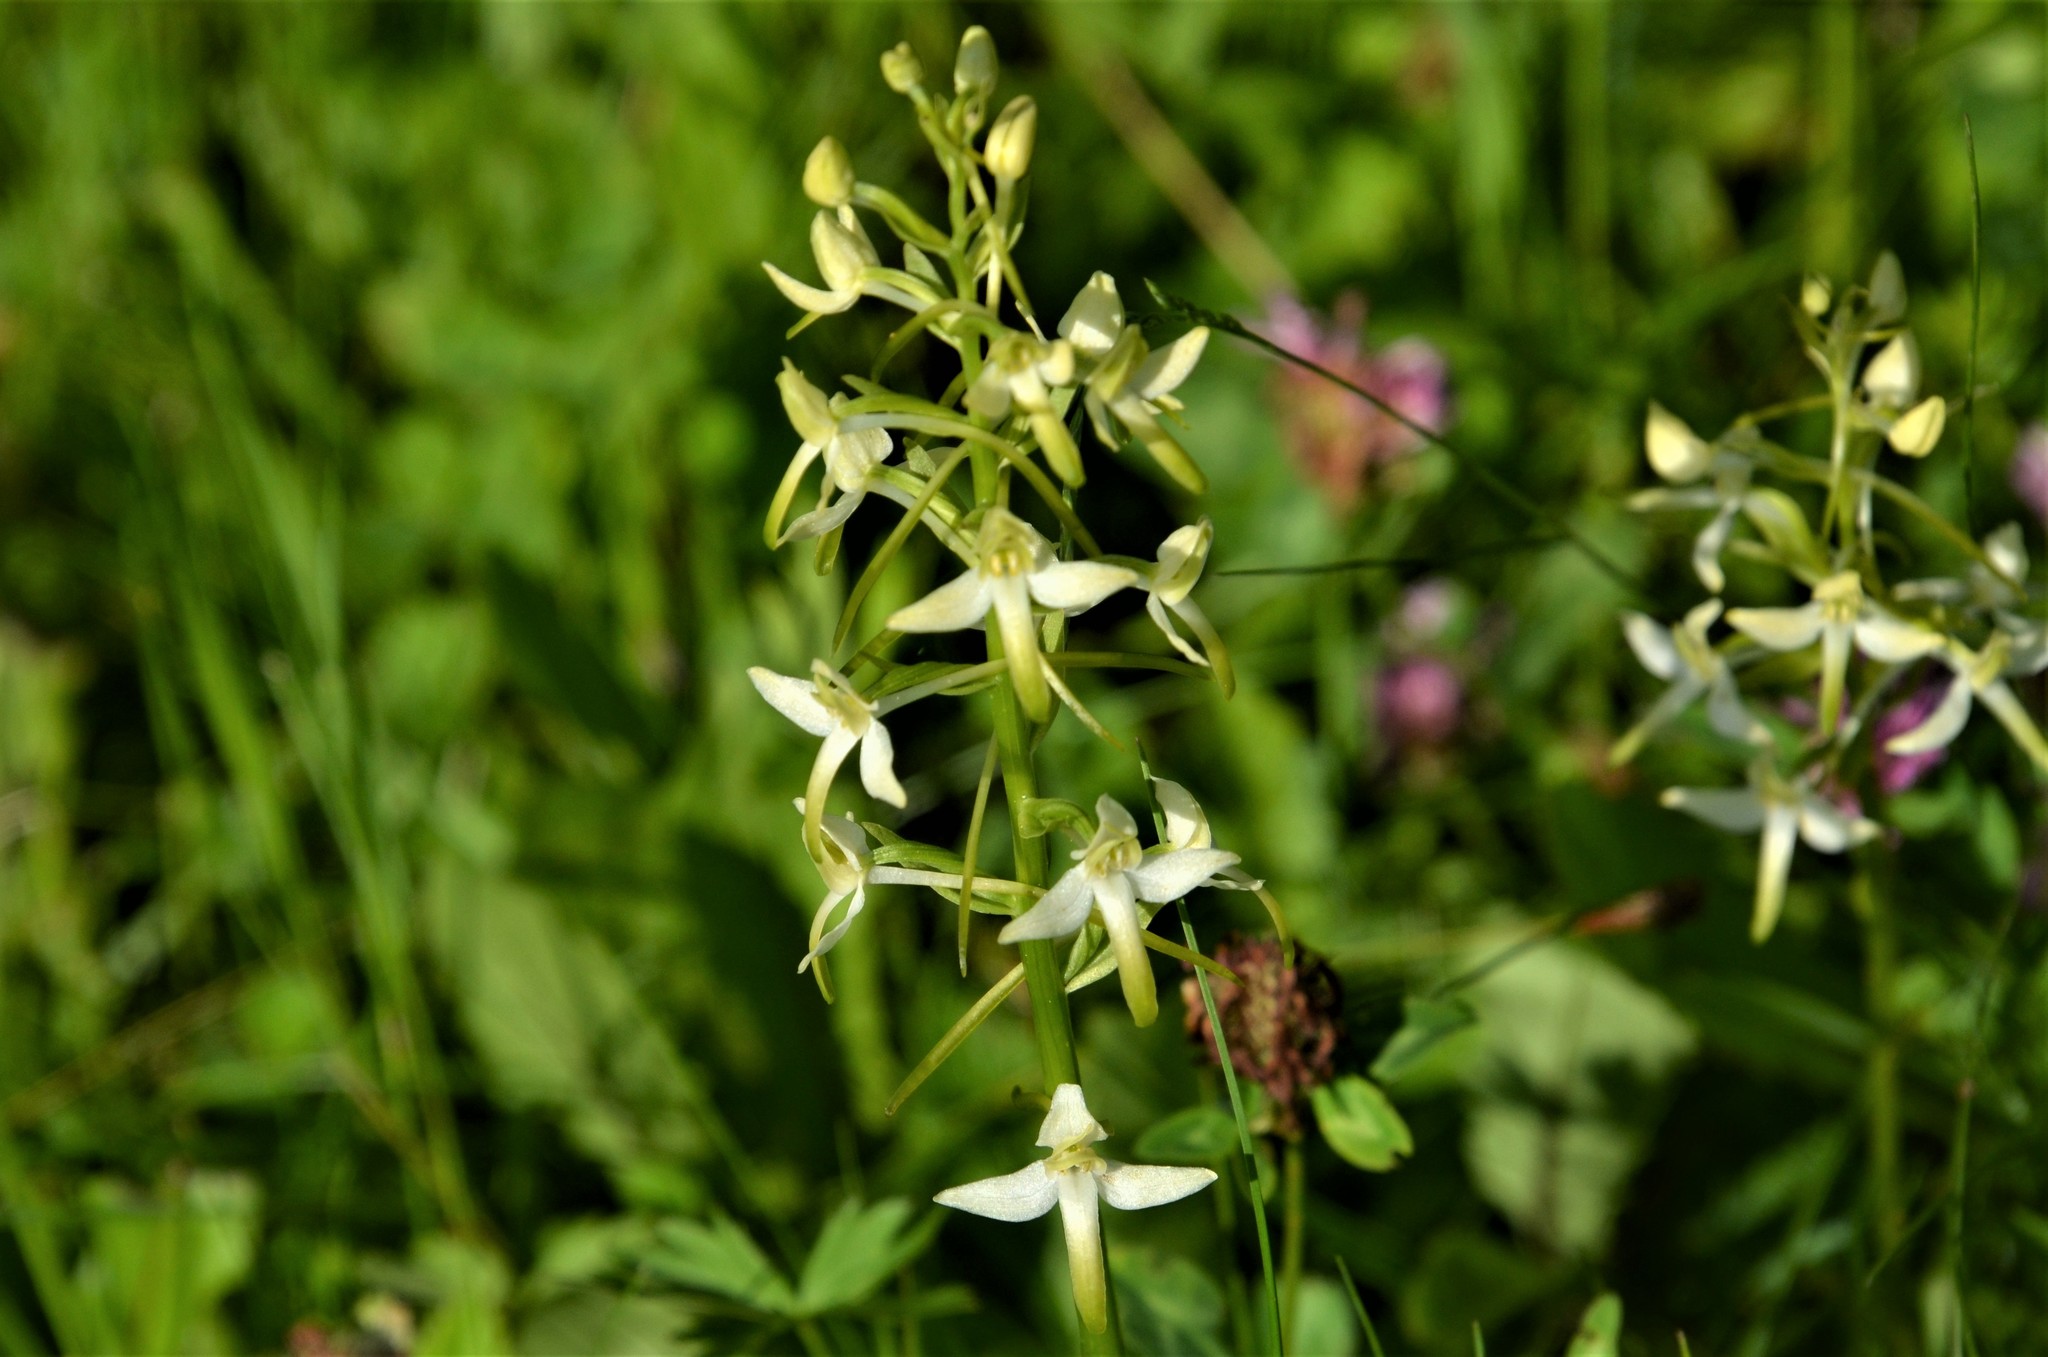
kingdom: Plantae
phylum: Tracheophyta
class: Liliopsida
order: Asparagales
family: Orchidaceae
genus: Platanthera
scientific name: Platanthera bifolia
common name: Lesser butterfly-orchid
